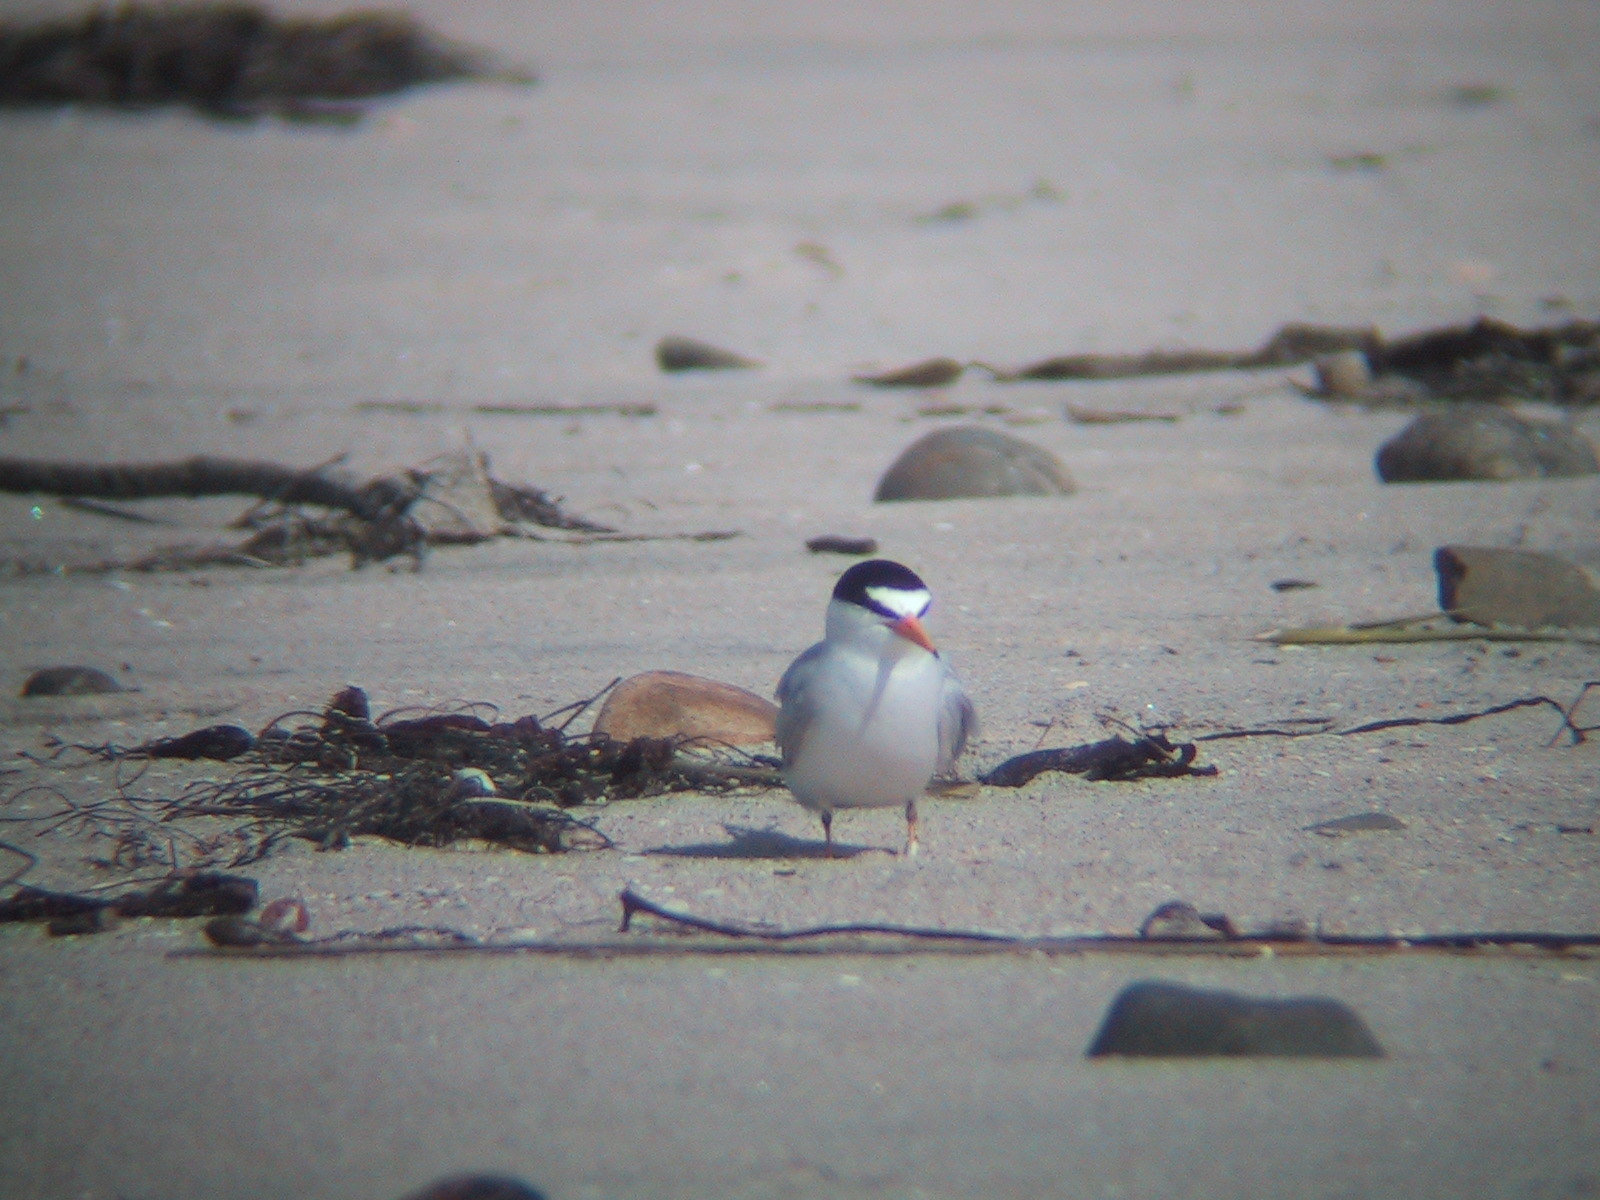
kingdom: Animalia
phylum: Chordata
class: Aves
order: Charadriiformes
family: Laridae
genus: Sternula
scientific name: Sternula antillarum
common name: Least tern
